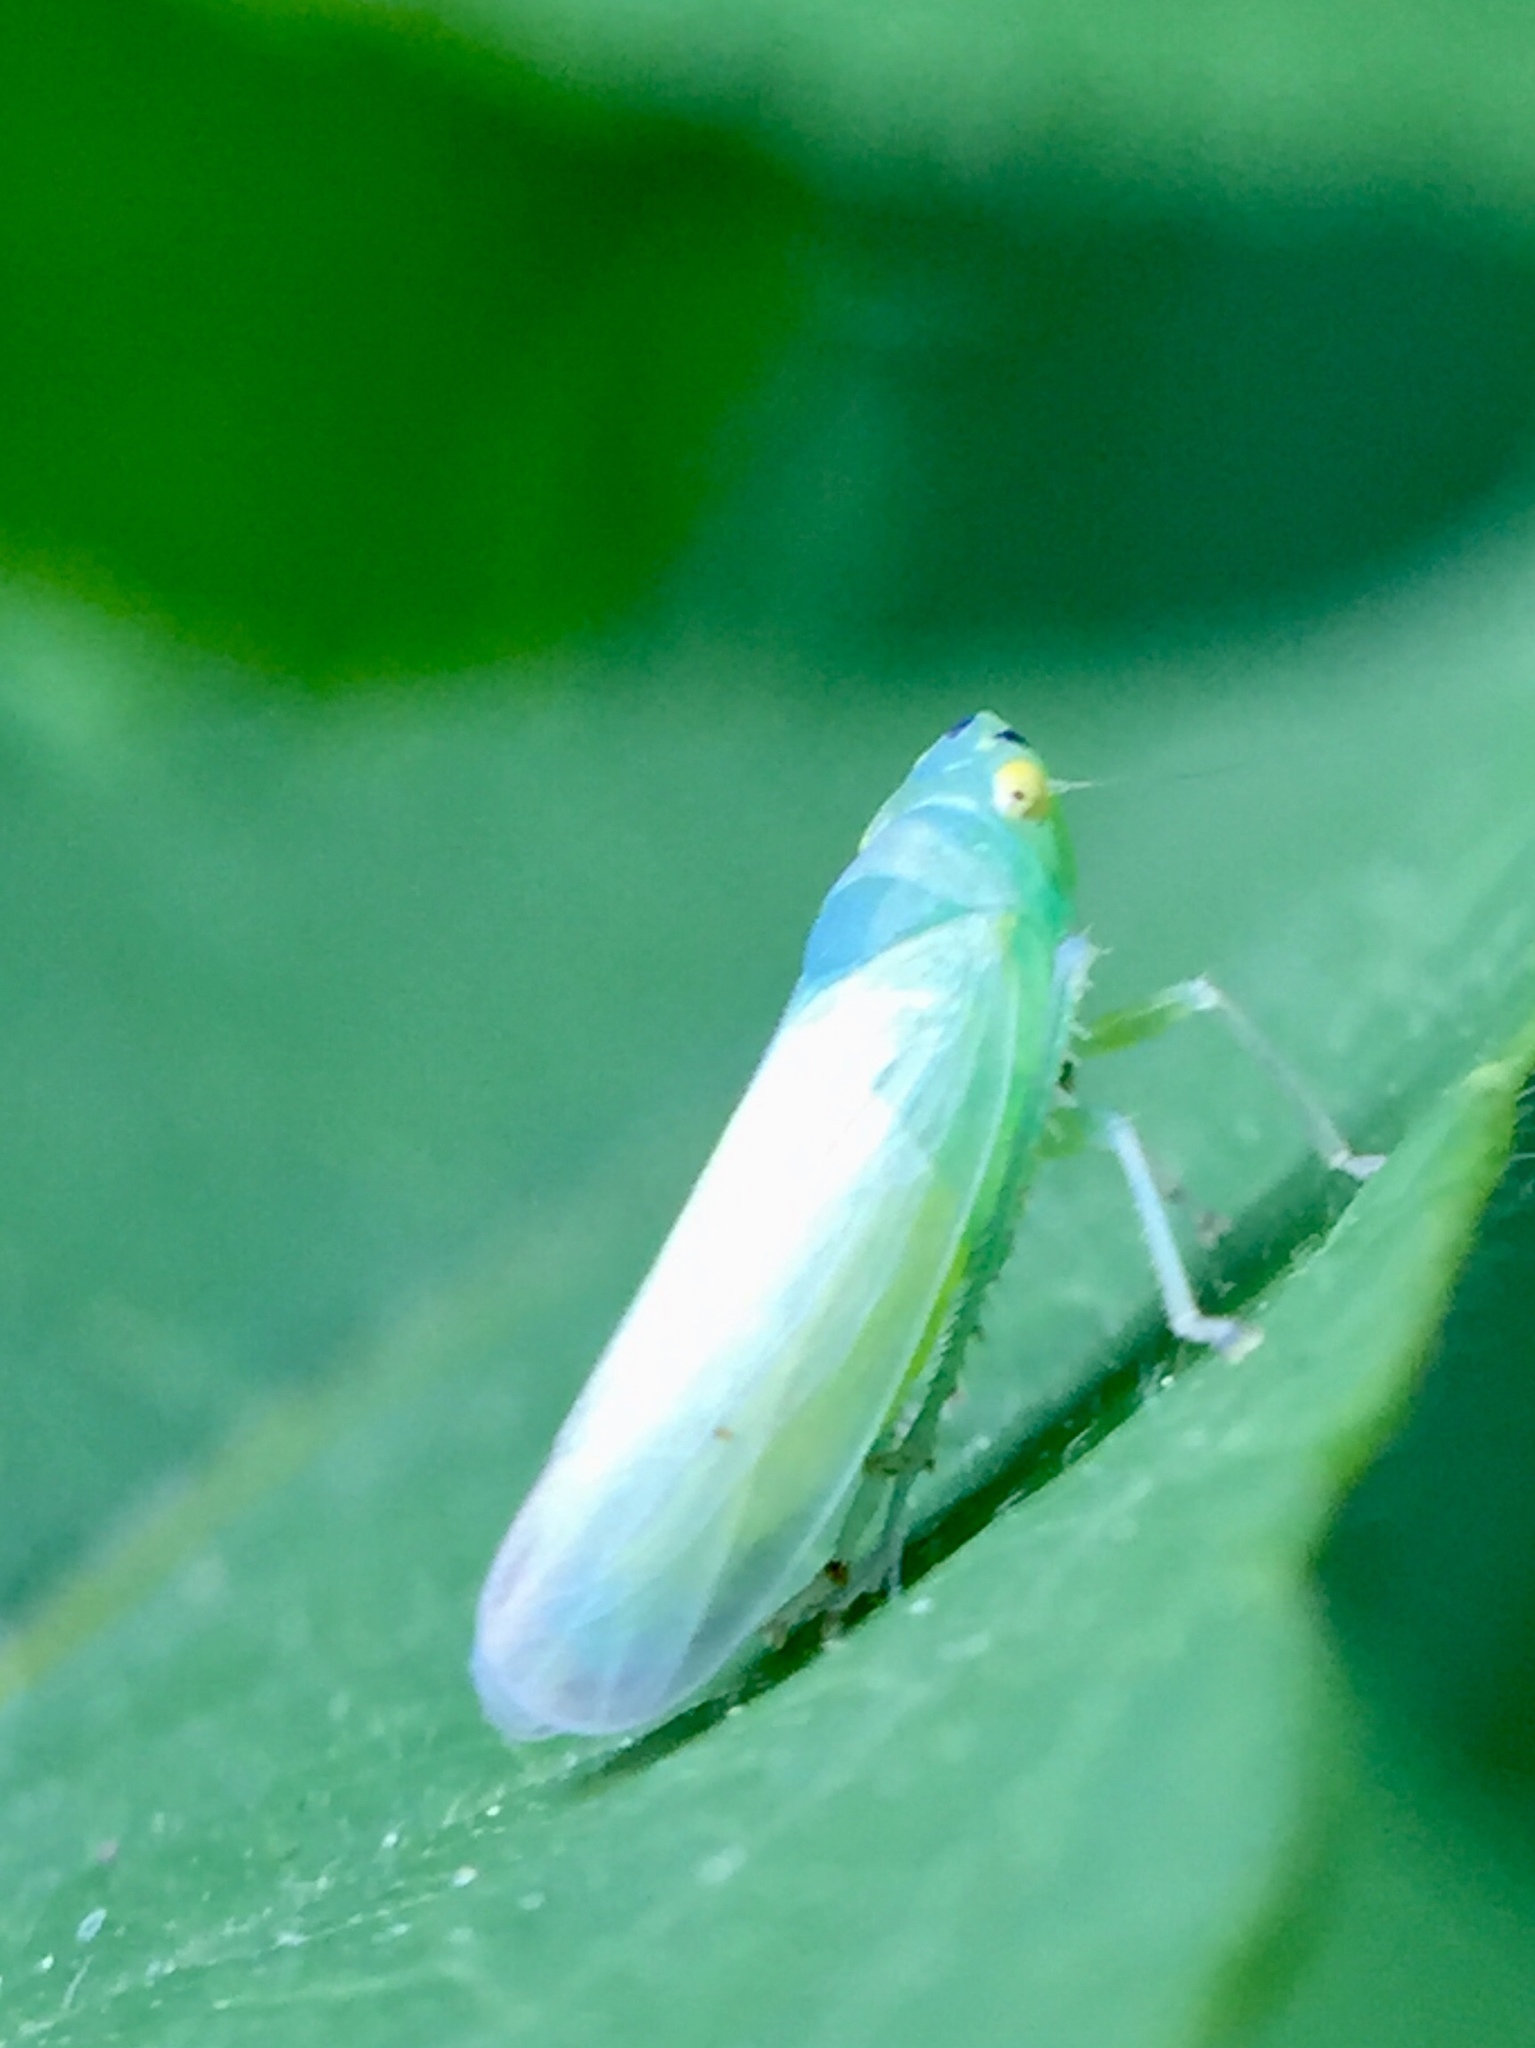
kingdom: Animalia
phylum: Arthropoda
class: Insecta
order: Hemiptera
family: Cicadellidae
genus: Pagaronia
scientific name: Pagaronia minor
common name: Leafhopper
